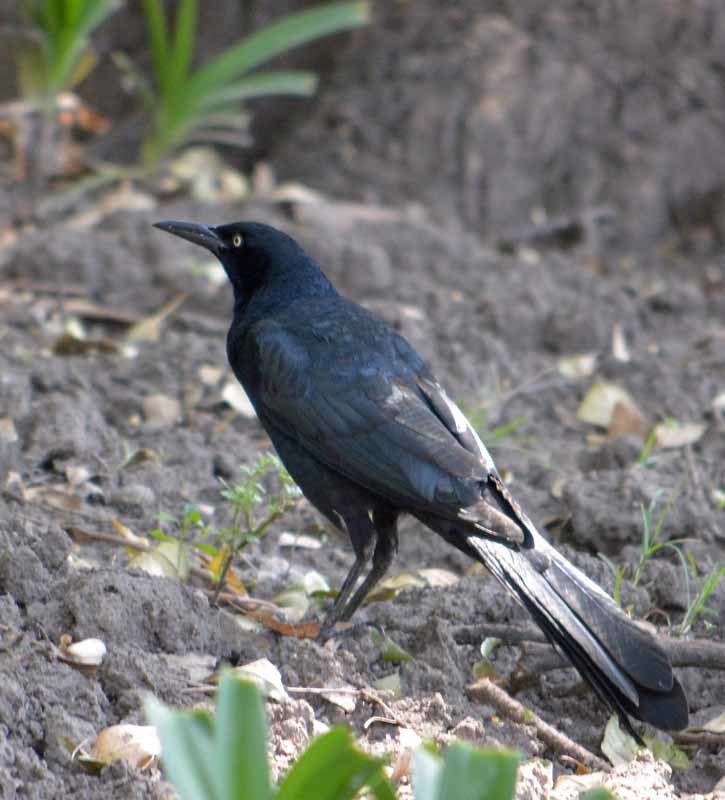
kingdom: Animalia
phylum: Chordata
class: Aves
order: Passeriformes
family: Icteridae
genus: Quiscalus
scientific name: Quiscalus mexicanus
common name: Great-tailed grackle
